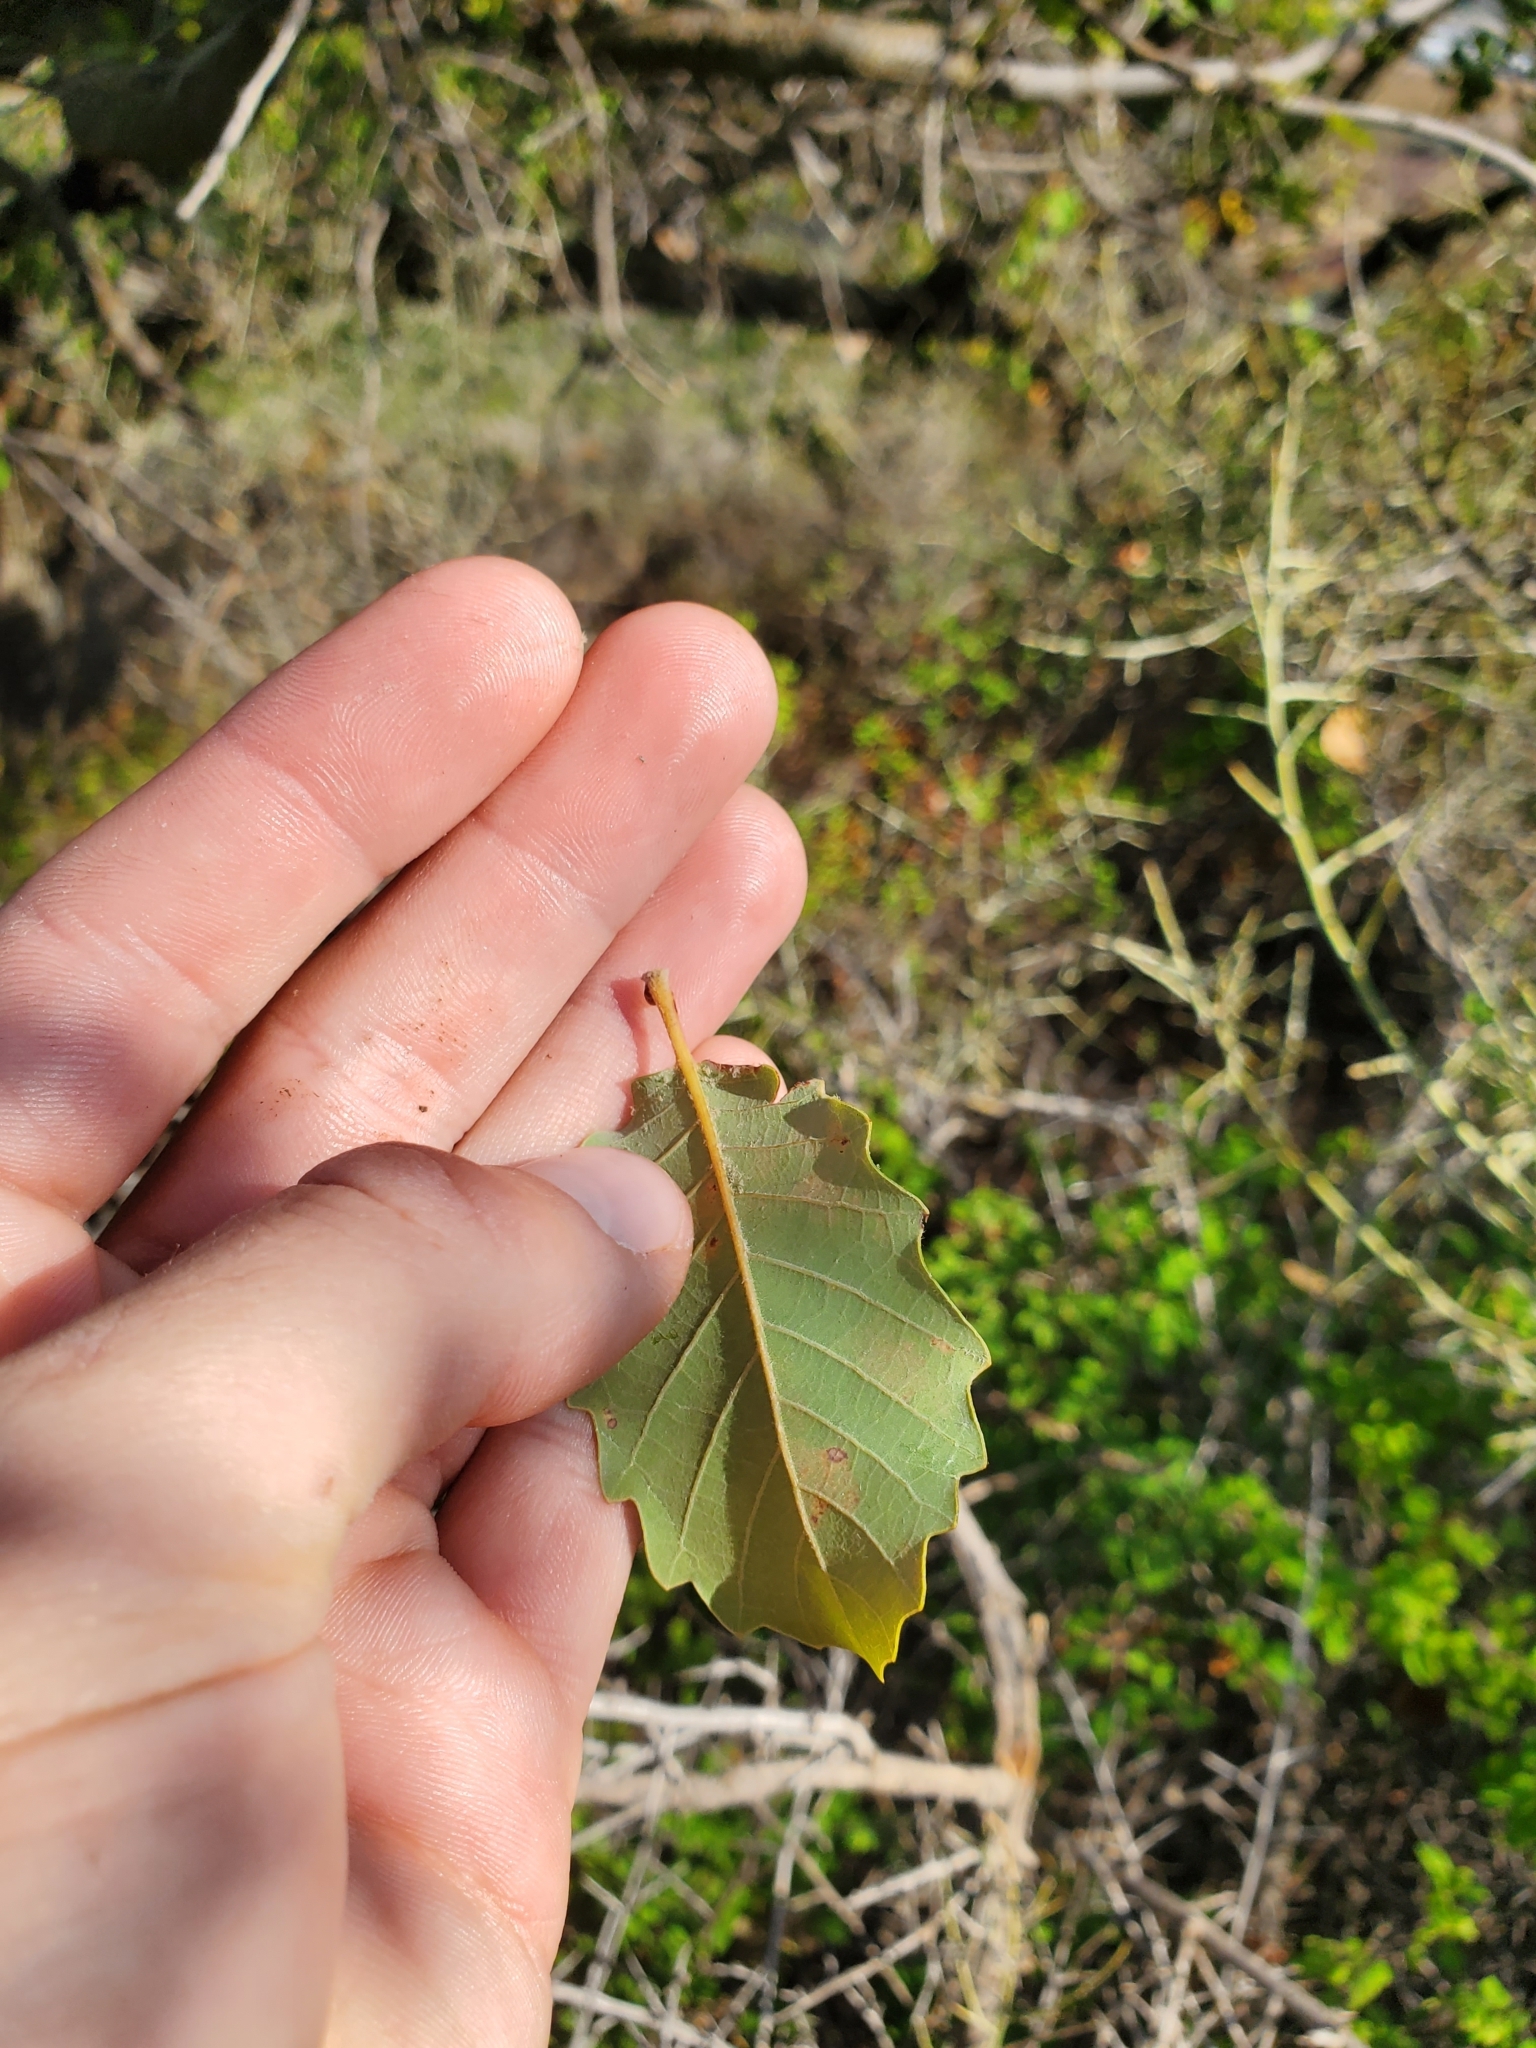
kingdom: Plantae
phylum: Tracheophyta
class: Magnoliopsida
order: Fagales
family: Fagaceae
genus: Quercus
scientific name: Quercus infectoria
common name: Aleppo oak
